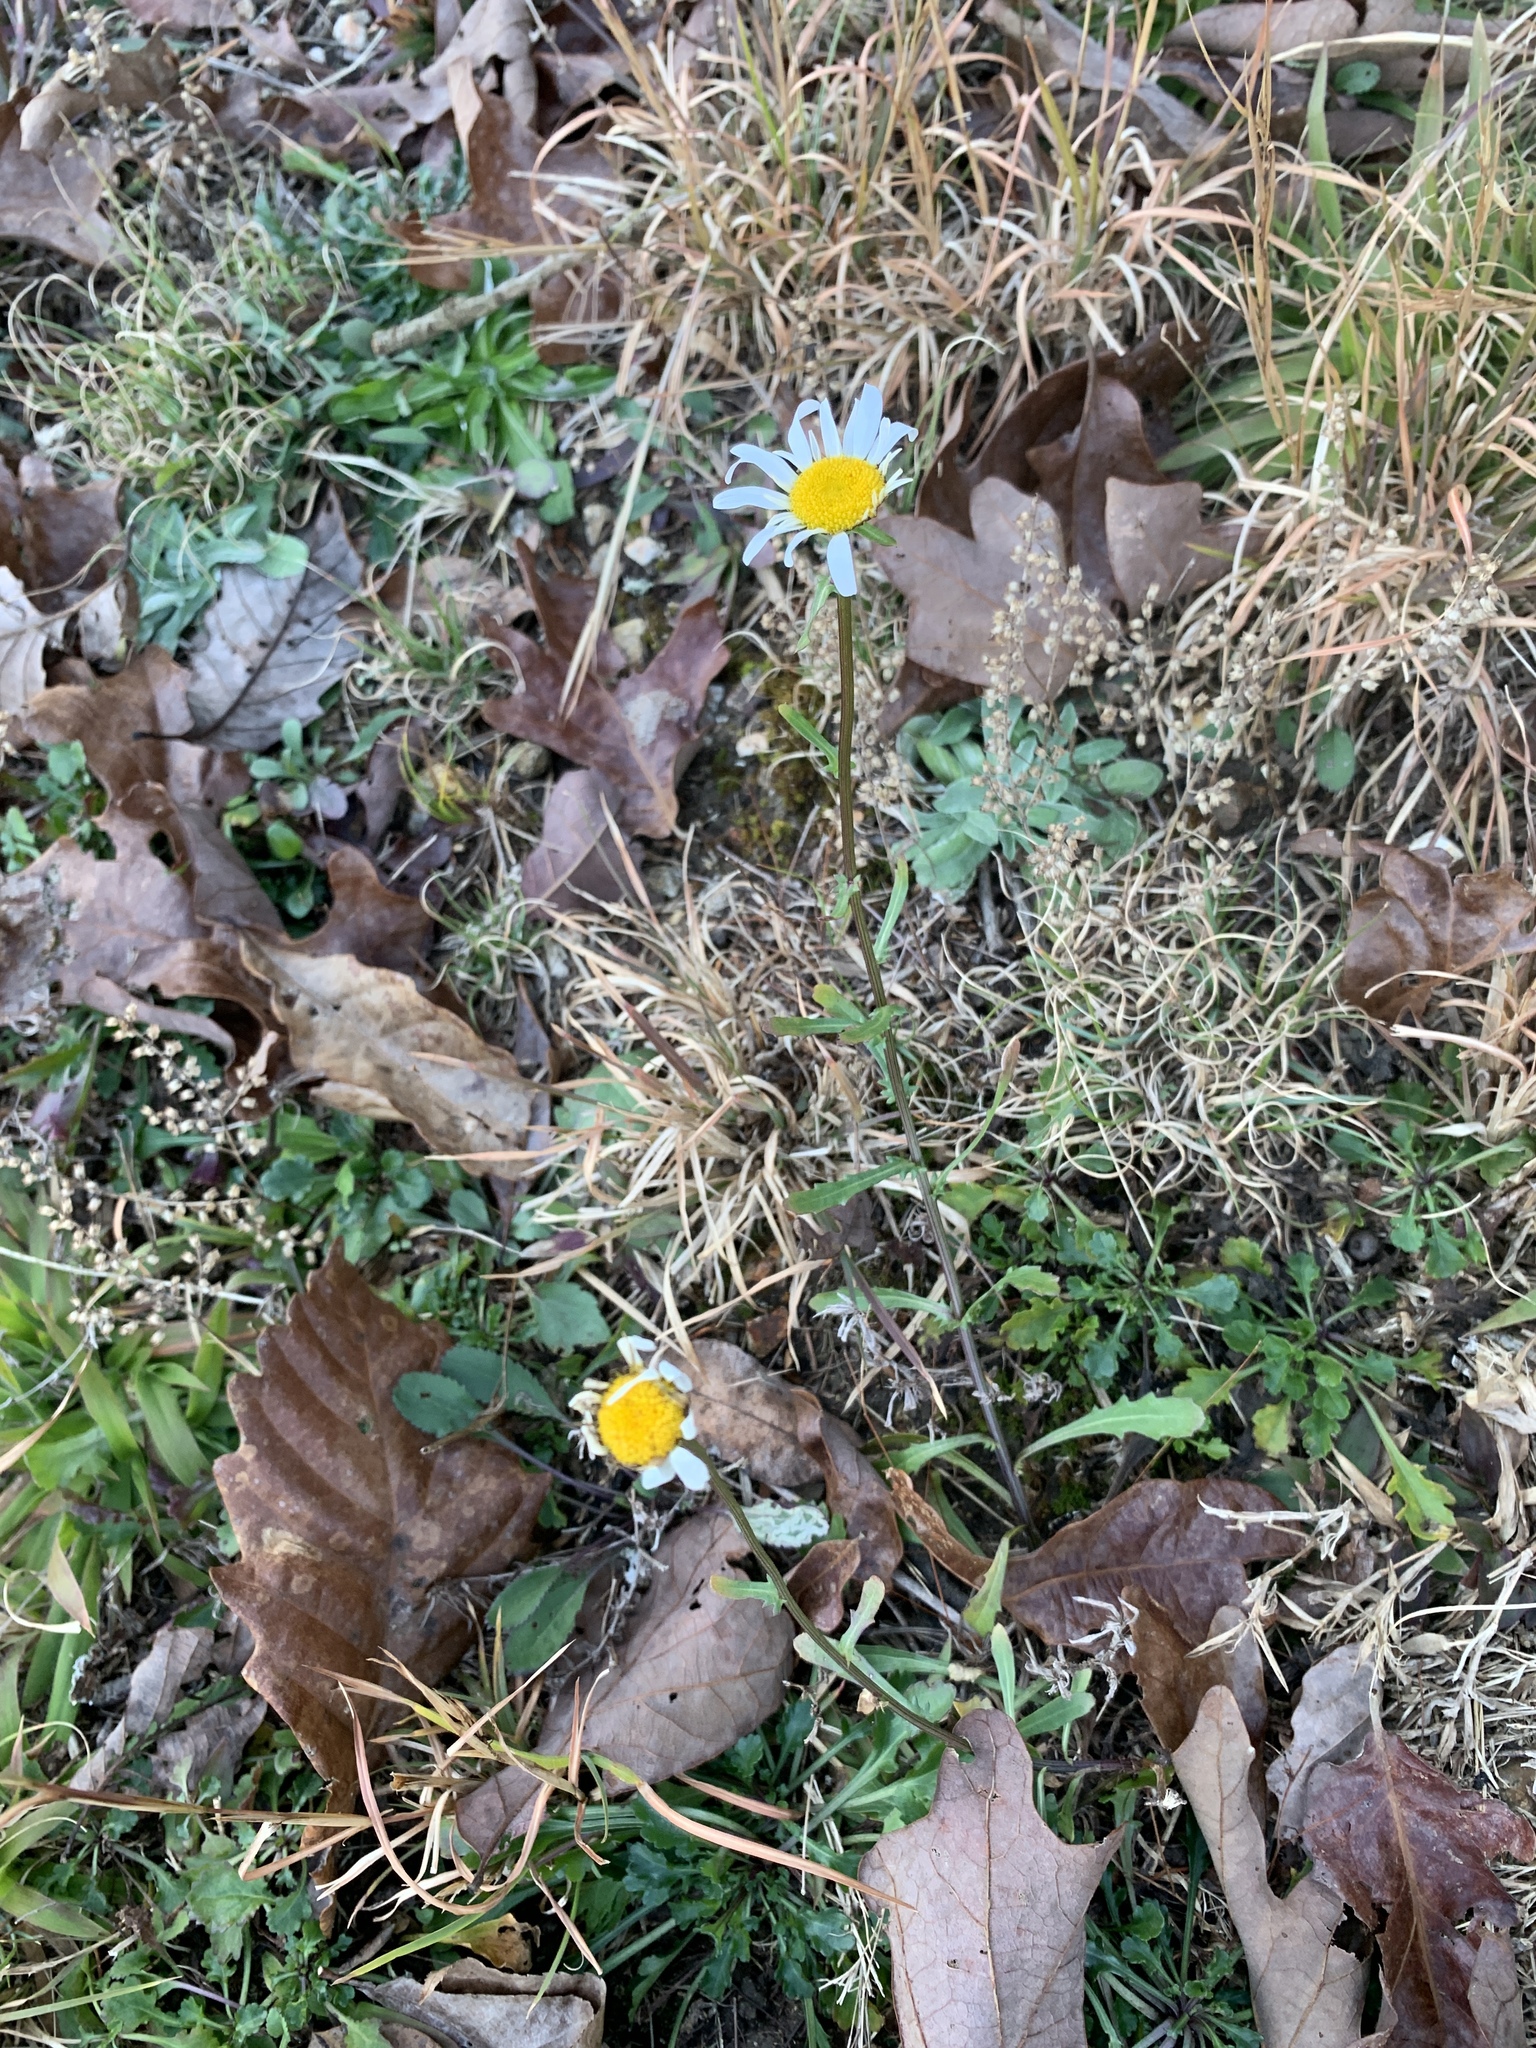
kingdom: Plantae
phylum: Tracheophyta
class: Magnoliopsida
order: Asterales
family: Asteraceae
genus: Leucanthemum
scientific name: Leucanthemum vulgare
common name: Oxeye daisy
